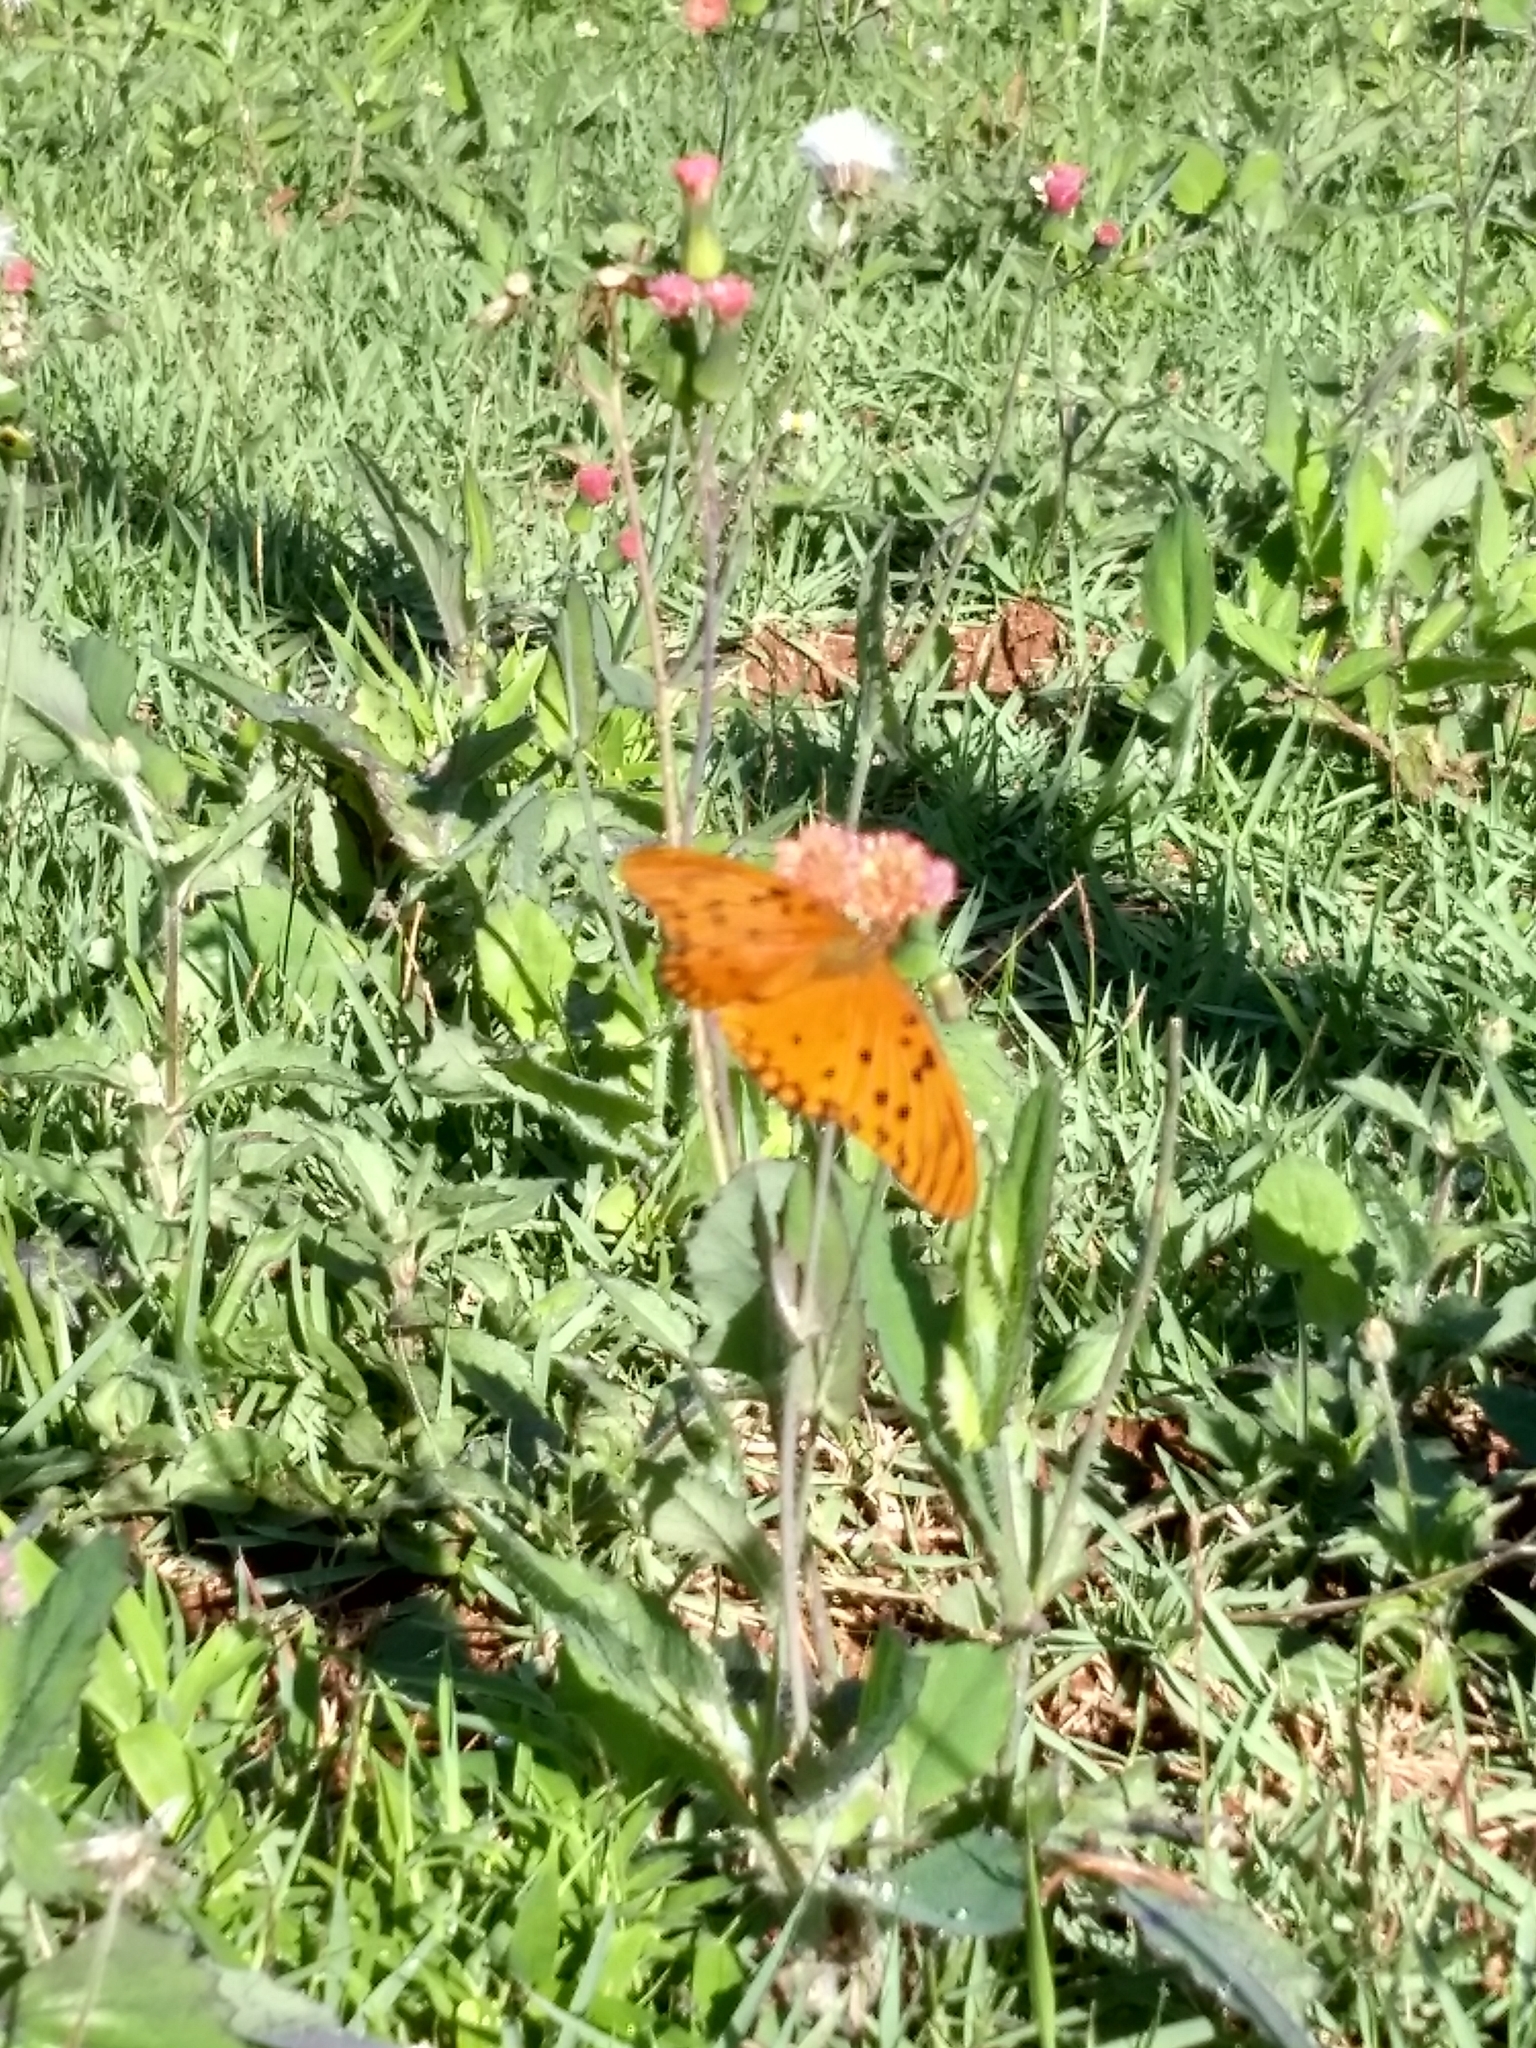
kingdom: Animalia
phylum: Arthropoda
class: Insecta
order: Lepidoptera
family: Nymphalidae
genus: Dione
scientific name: Dione vanillae
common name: Gulf fritillary
